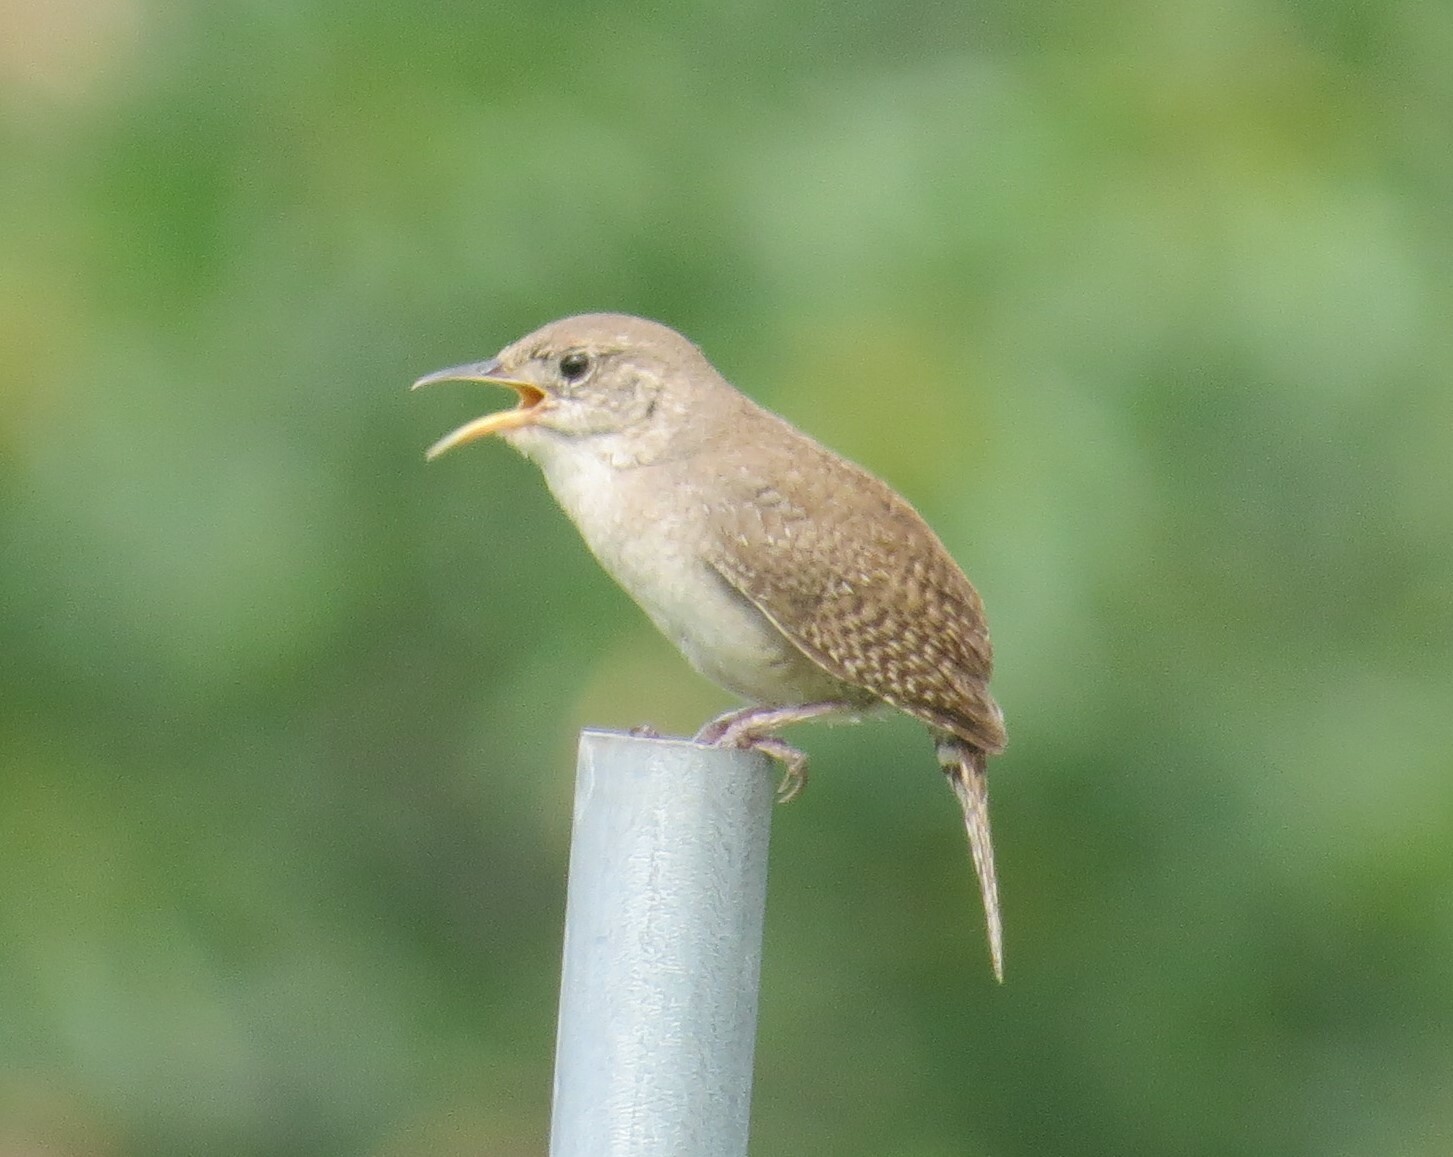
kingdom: Animalia
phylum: Chordata
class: Aves
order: Passeriformes
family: Troglodytidae
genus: Troglodytes
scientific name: Troglodytes aedon
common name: House wren
